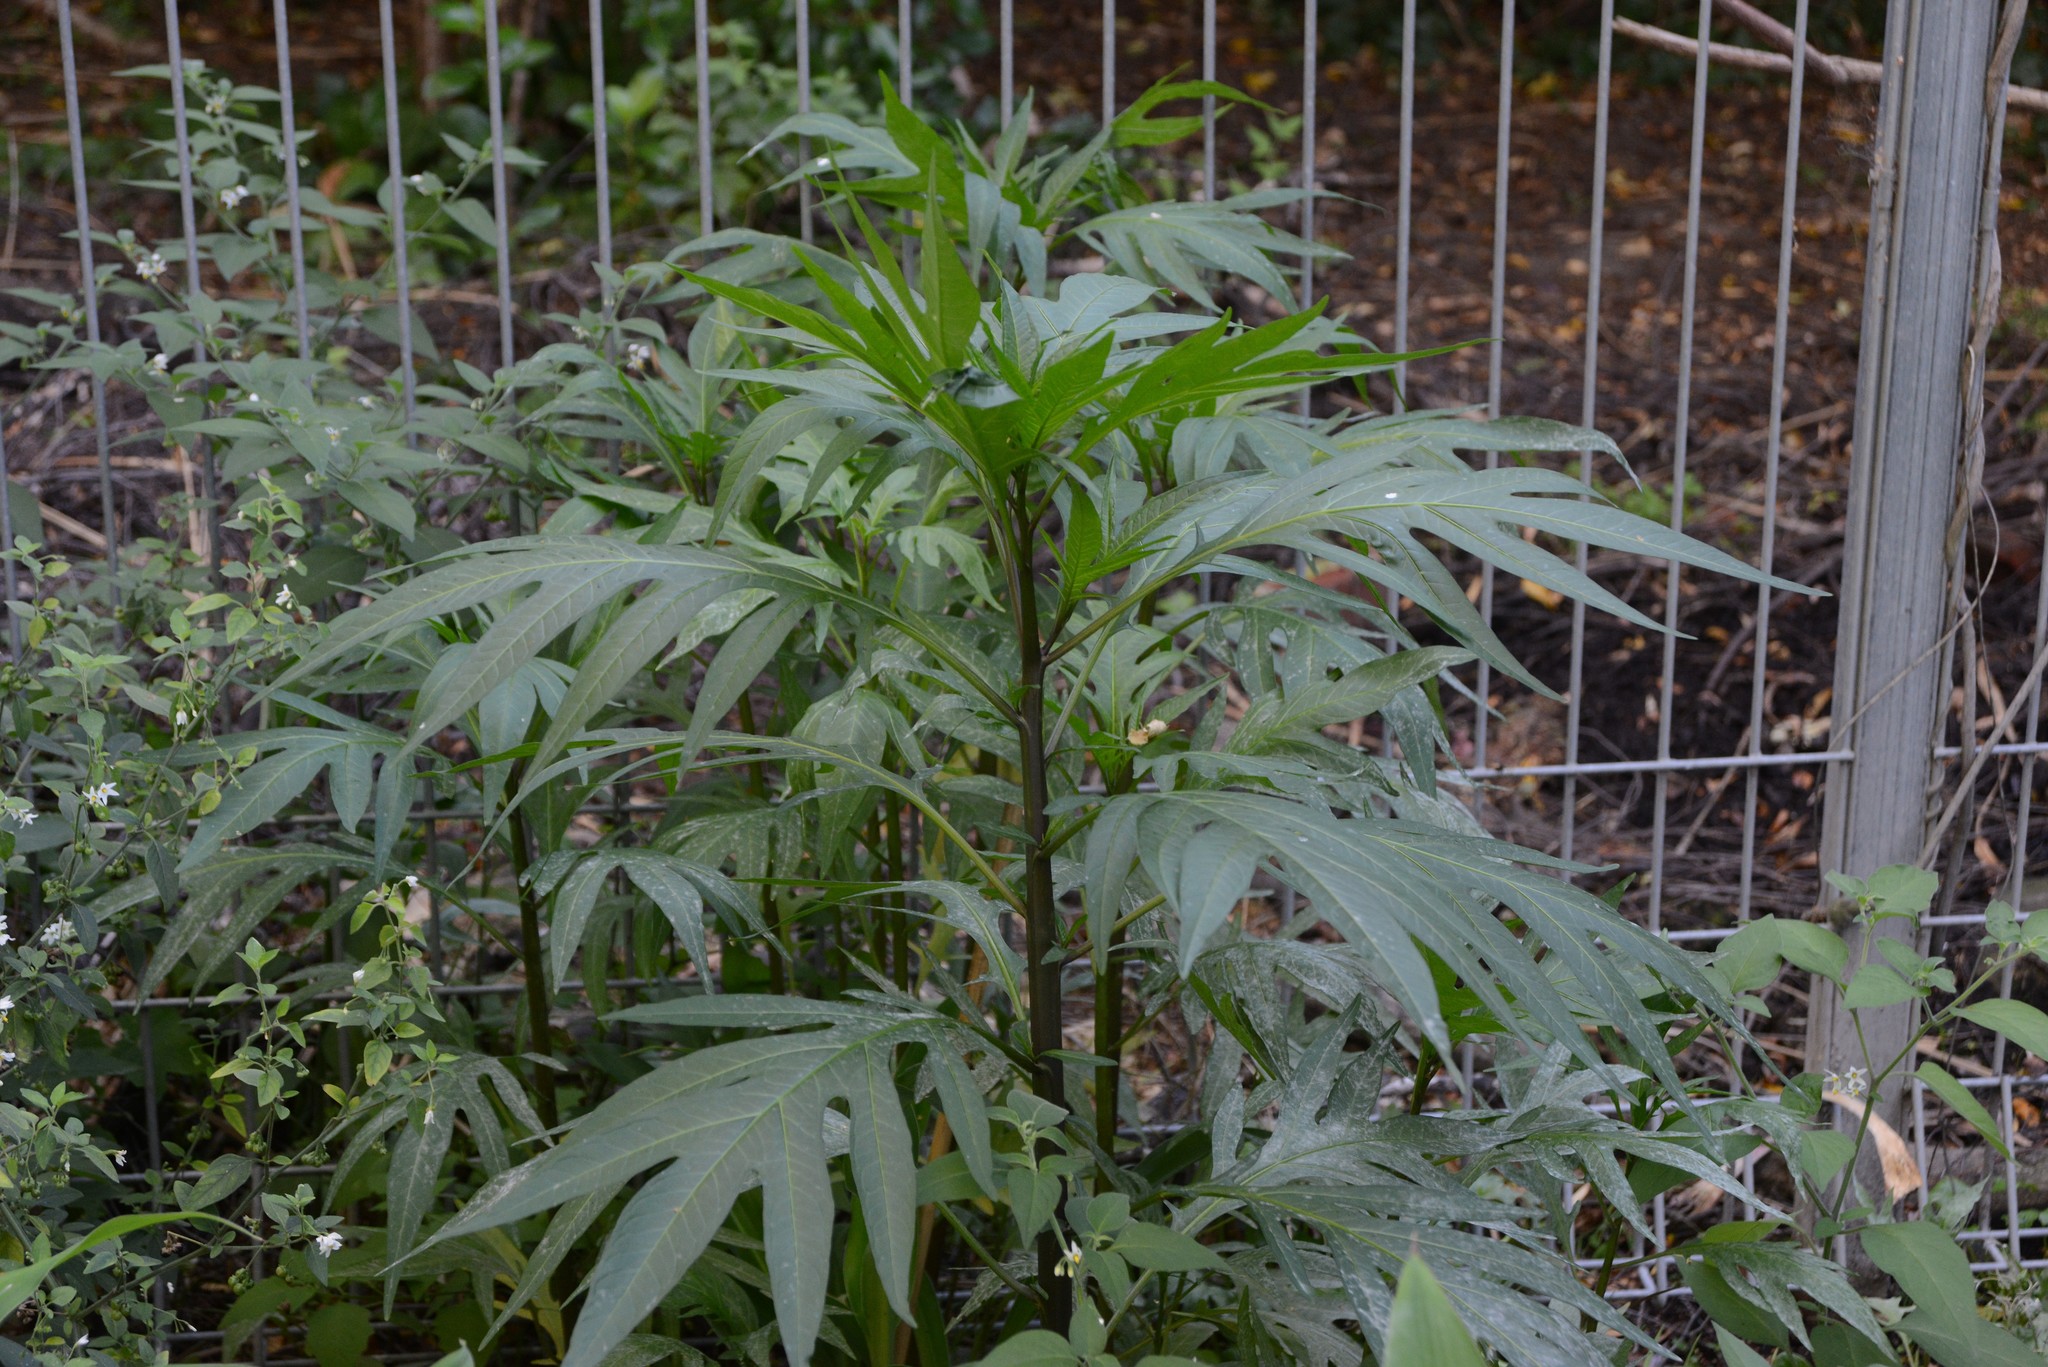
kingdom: Plantae
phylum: Tracheophyta
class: Magnoliopsida
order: Solanales
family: Solanaceae
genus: Solanum
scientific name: Solanum
